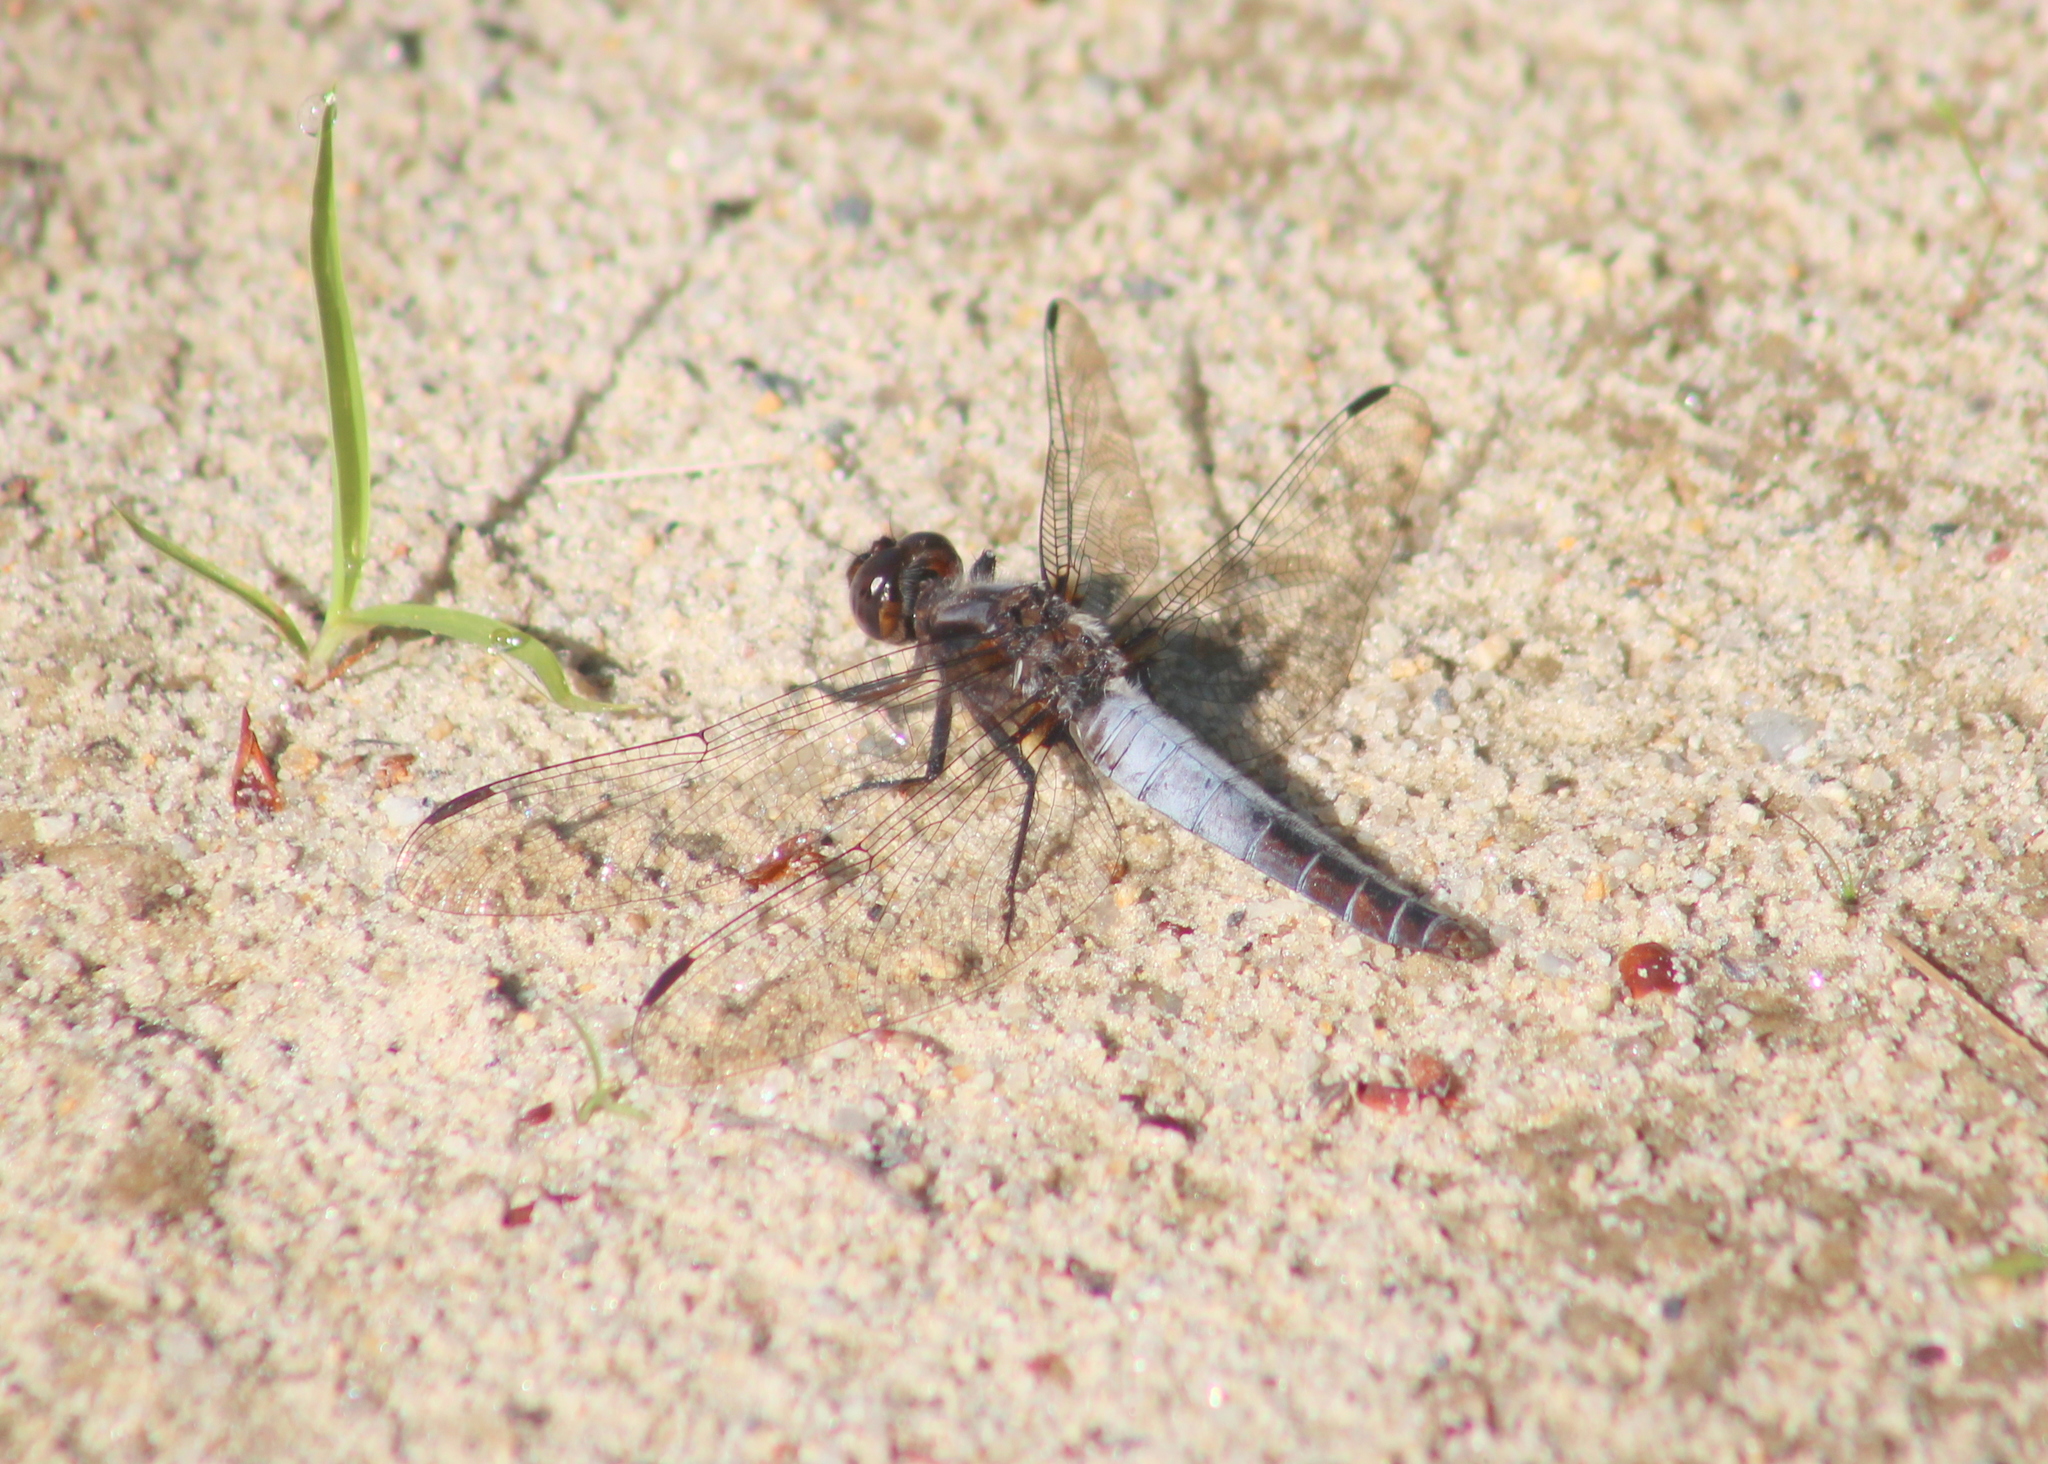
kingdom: Animalia
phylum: Arthropoda
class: Insecta
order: Odonata
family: Libellulidae
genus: Ladona
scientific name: Ladona julia
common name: Chalk-fronted corporal
